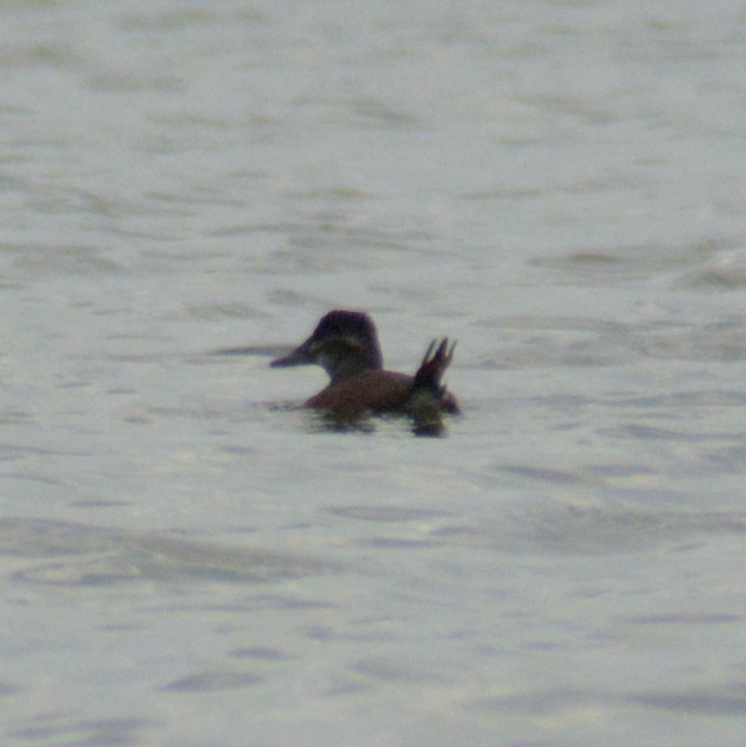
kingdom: Animalia
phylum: Chordata
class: Aves
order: Anseriformes
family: Anatidae
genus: Oxyura
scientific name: Oxyura vittata
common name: Lake duck
